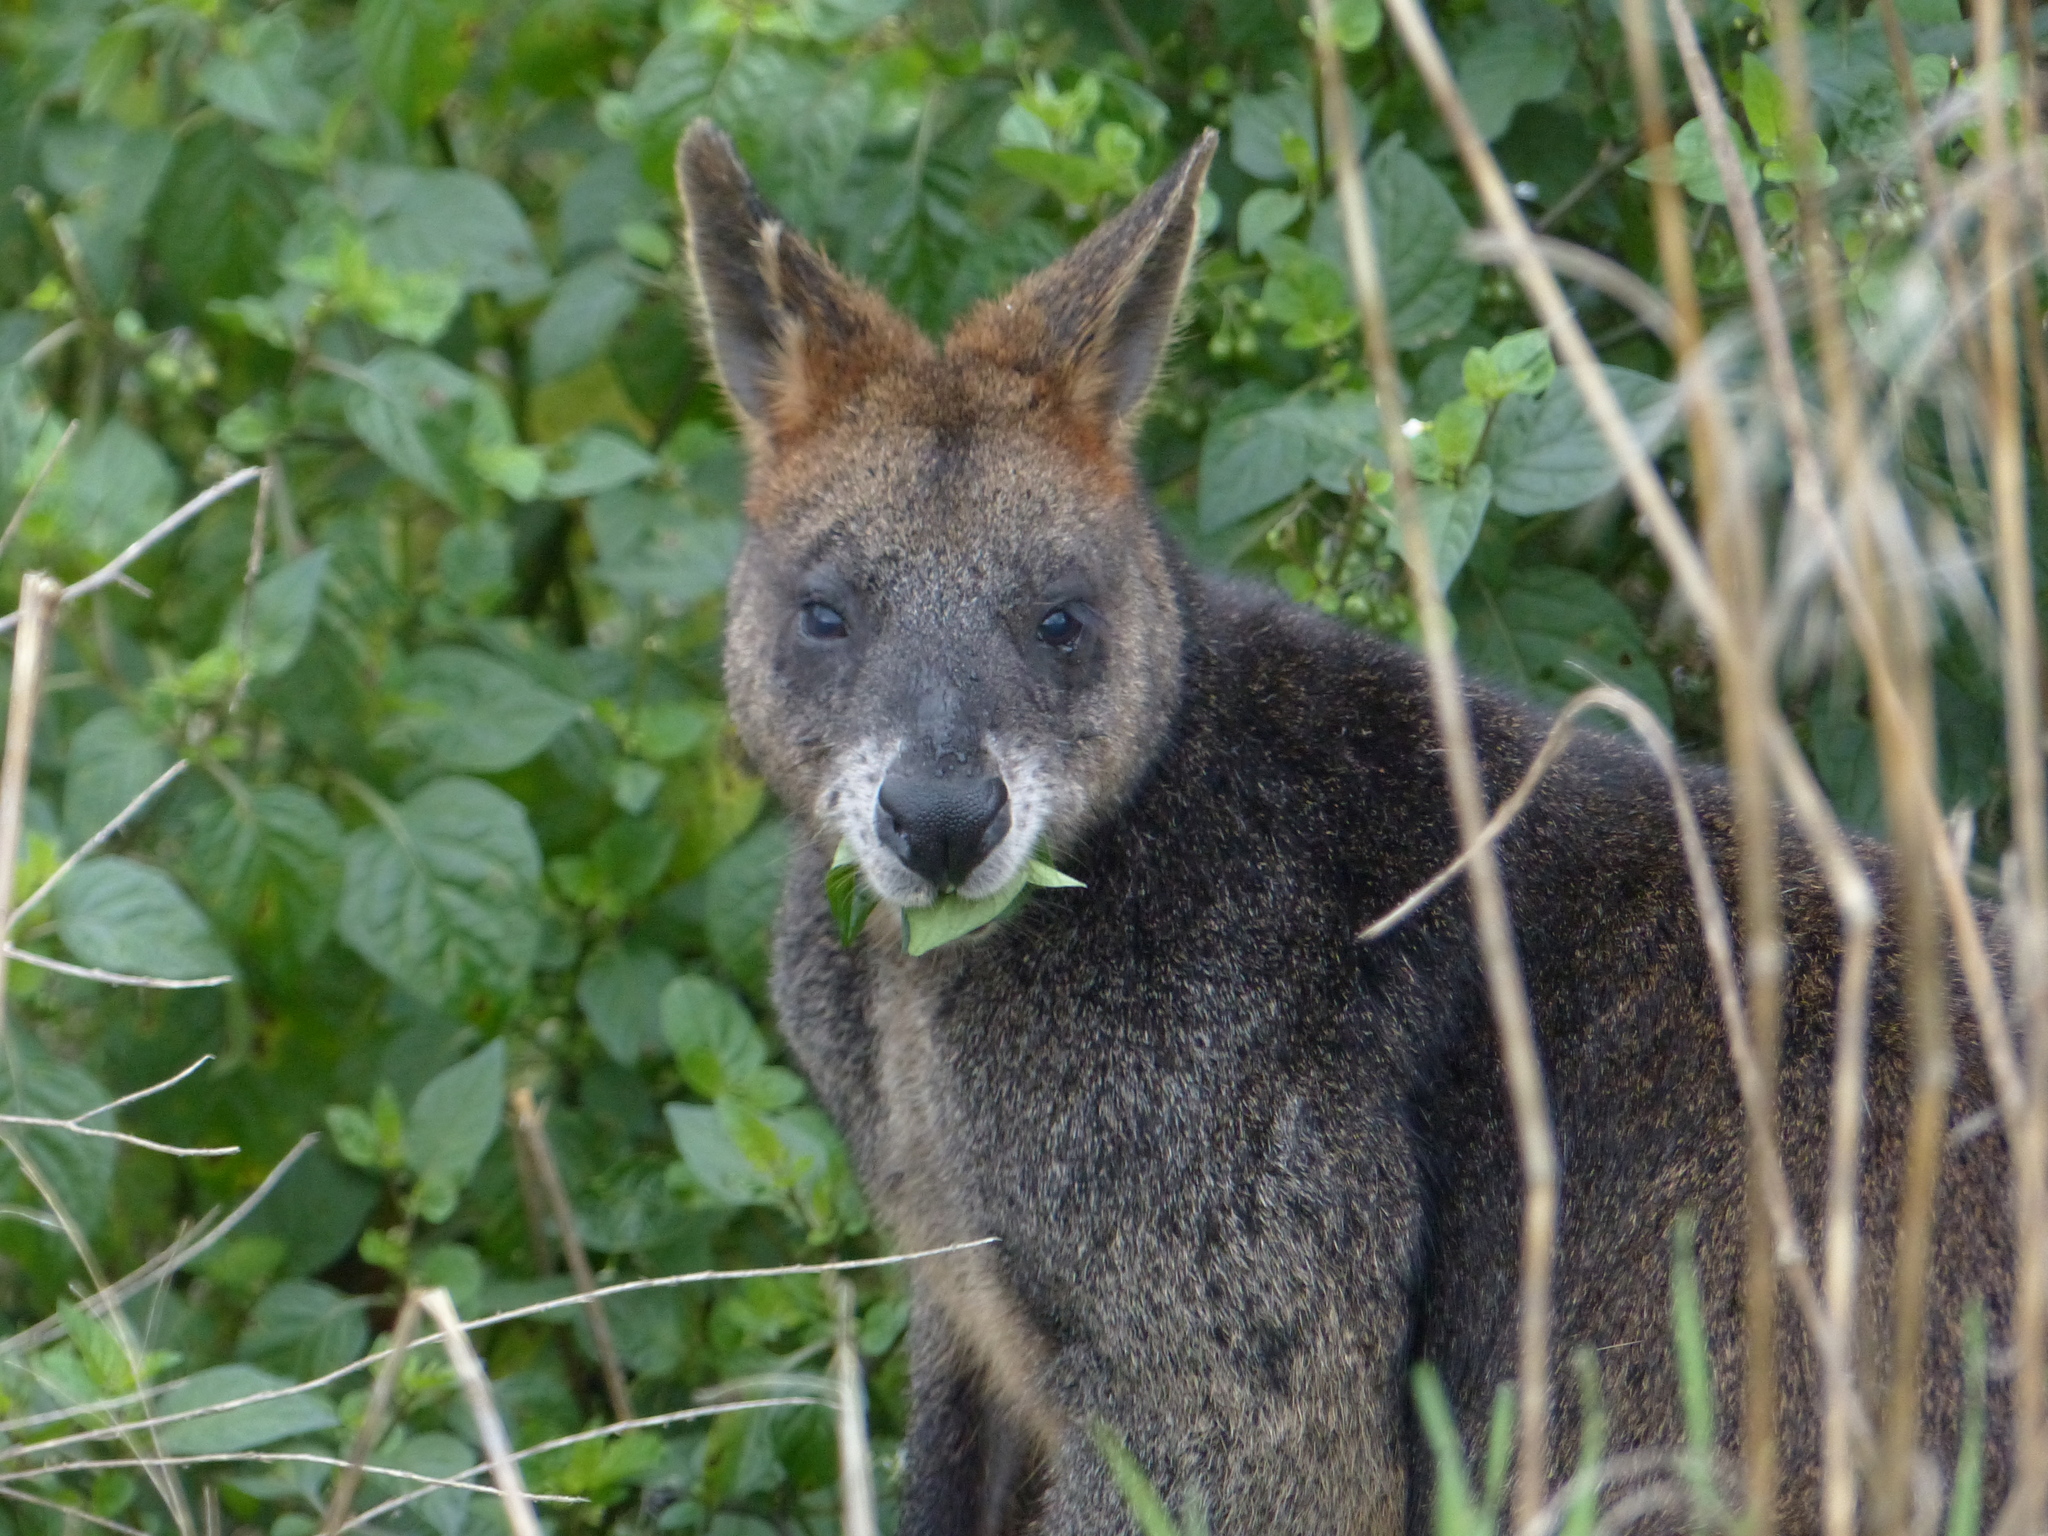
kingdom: Animalia
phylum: Chordata
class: Mammalia
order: Diprotodontia
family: Macropodidae
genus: Wallabia
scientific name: Wallabia bicolor
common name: Swamp wallaby
